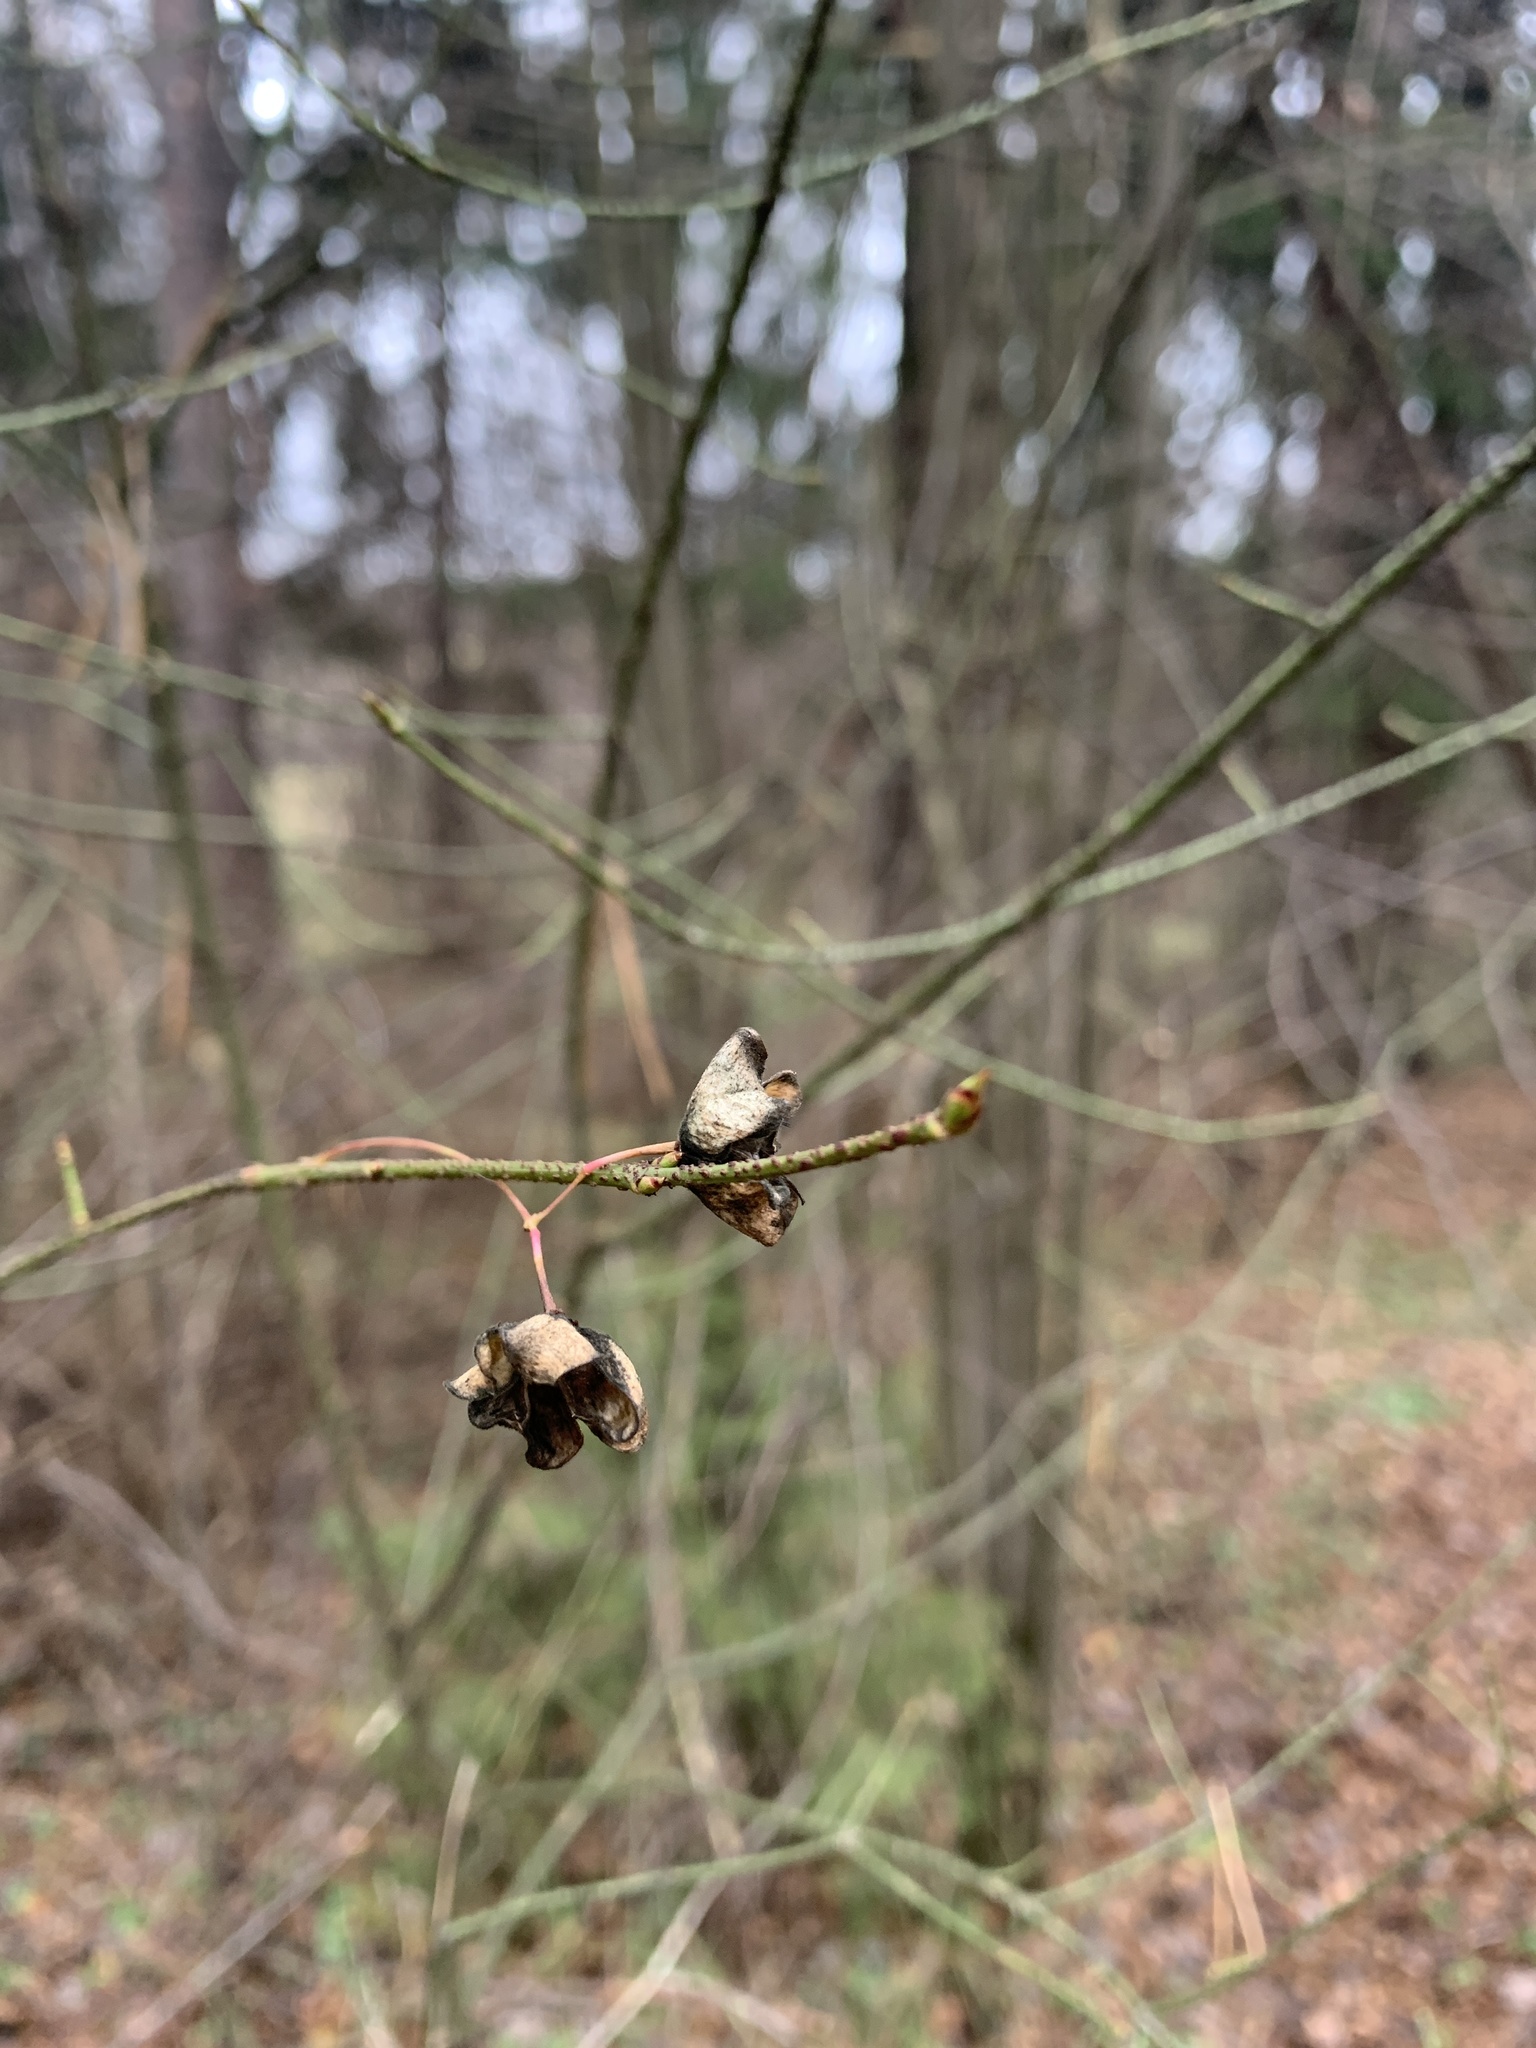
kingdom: Plantae
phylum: Tracheophyta
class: Magnoliopsida
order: Celastrales
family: Celastraceae
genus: Euonymus
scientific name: Euonymus verrucosus
